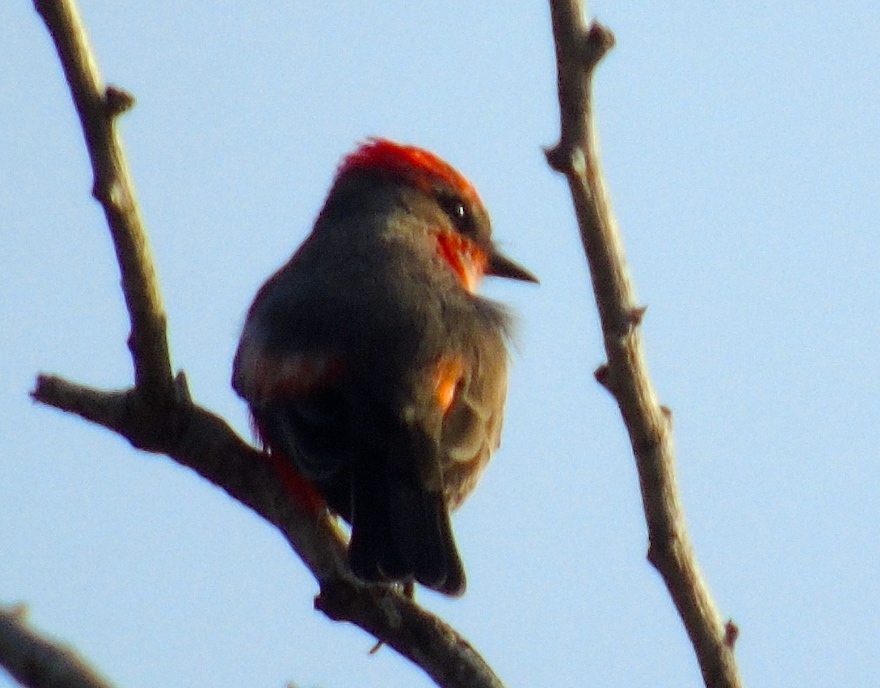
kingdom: Animalia
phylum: Chordata
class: Aves
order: Passeriformes
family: Tyrannidae
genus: Pyrocephalus
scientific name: Pyrocephalus rubinus
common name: Vermilion flycatcher
